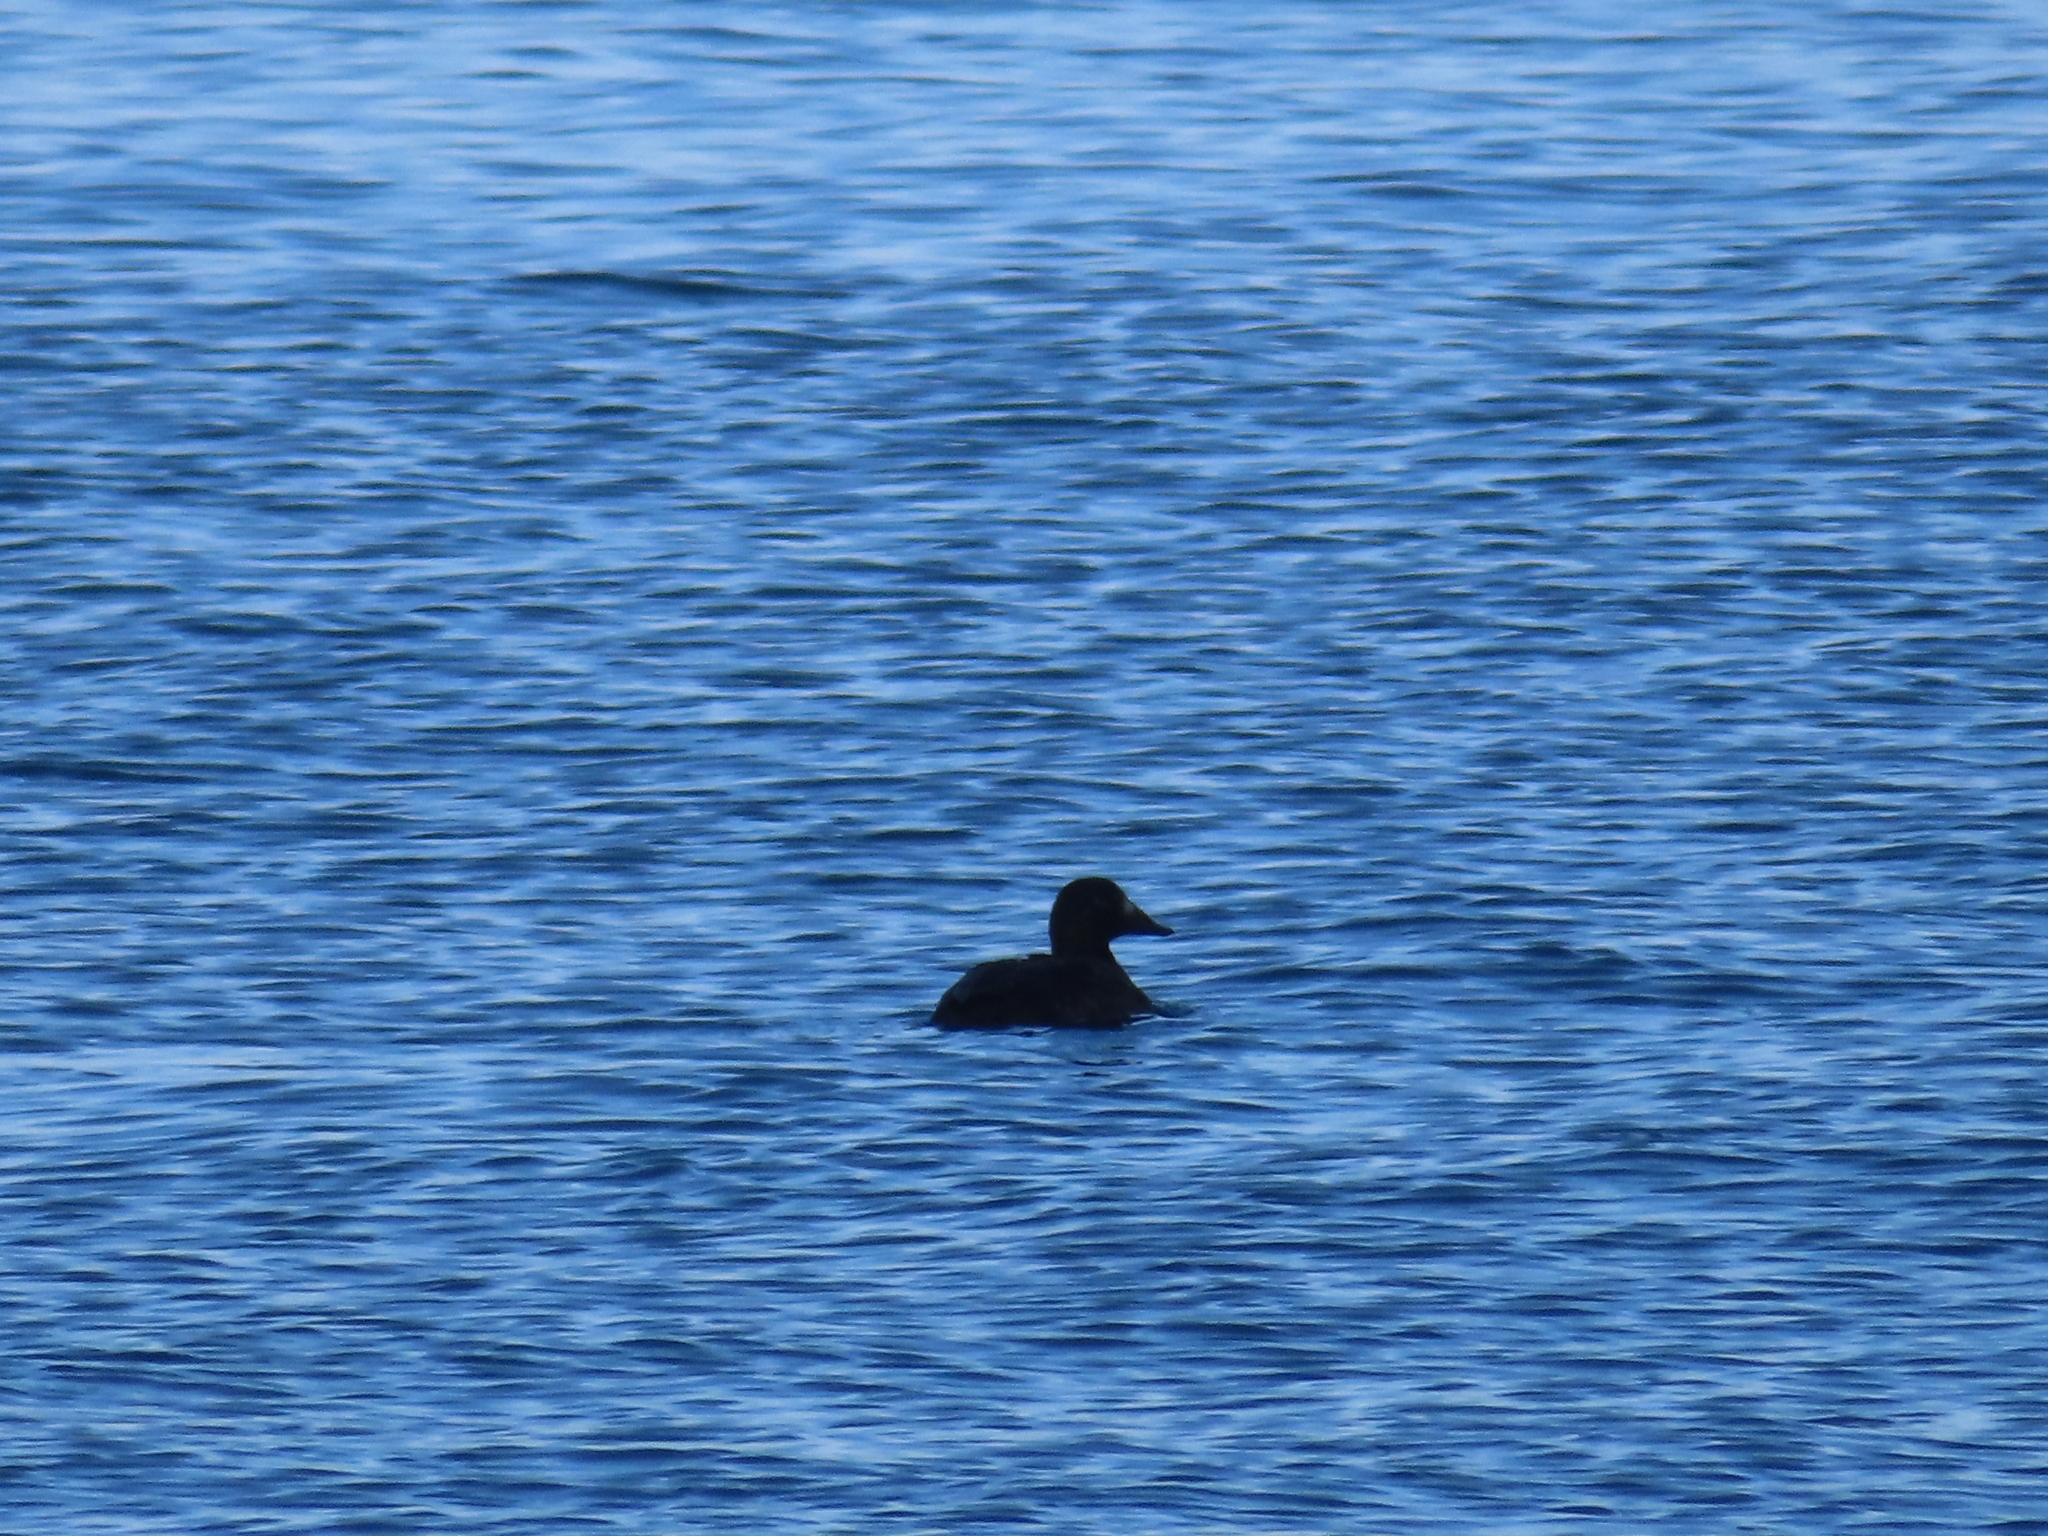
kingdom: Animalia
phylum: Chordata
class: Aves
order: Anseriformes
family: Anatidae
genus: Melanitta
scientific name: Melanitta deglandi
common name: White-winged scoter
